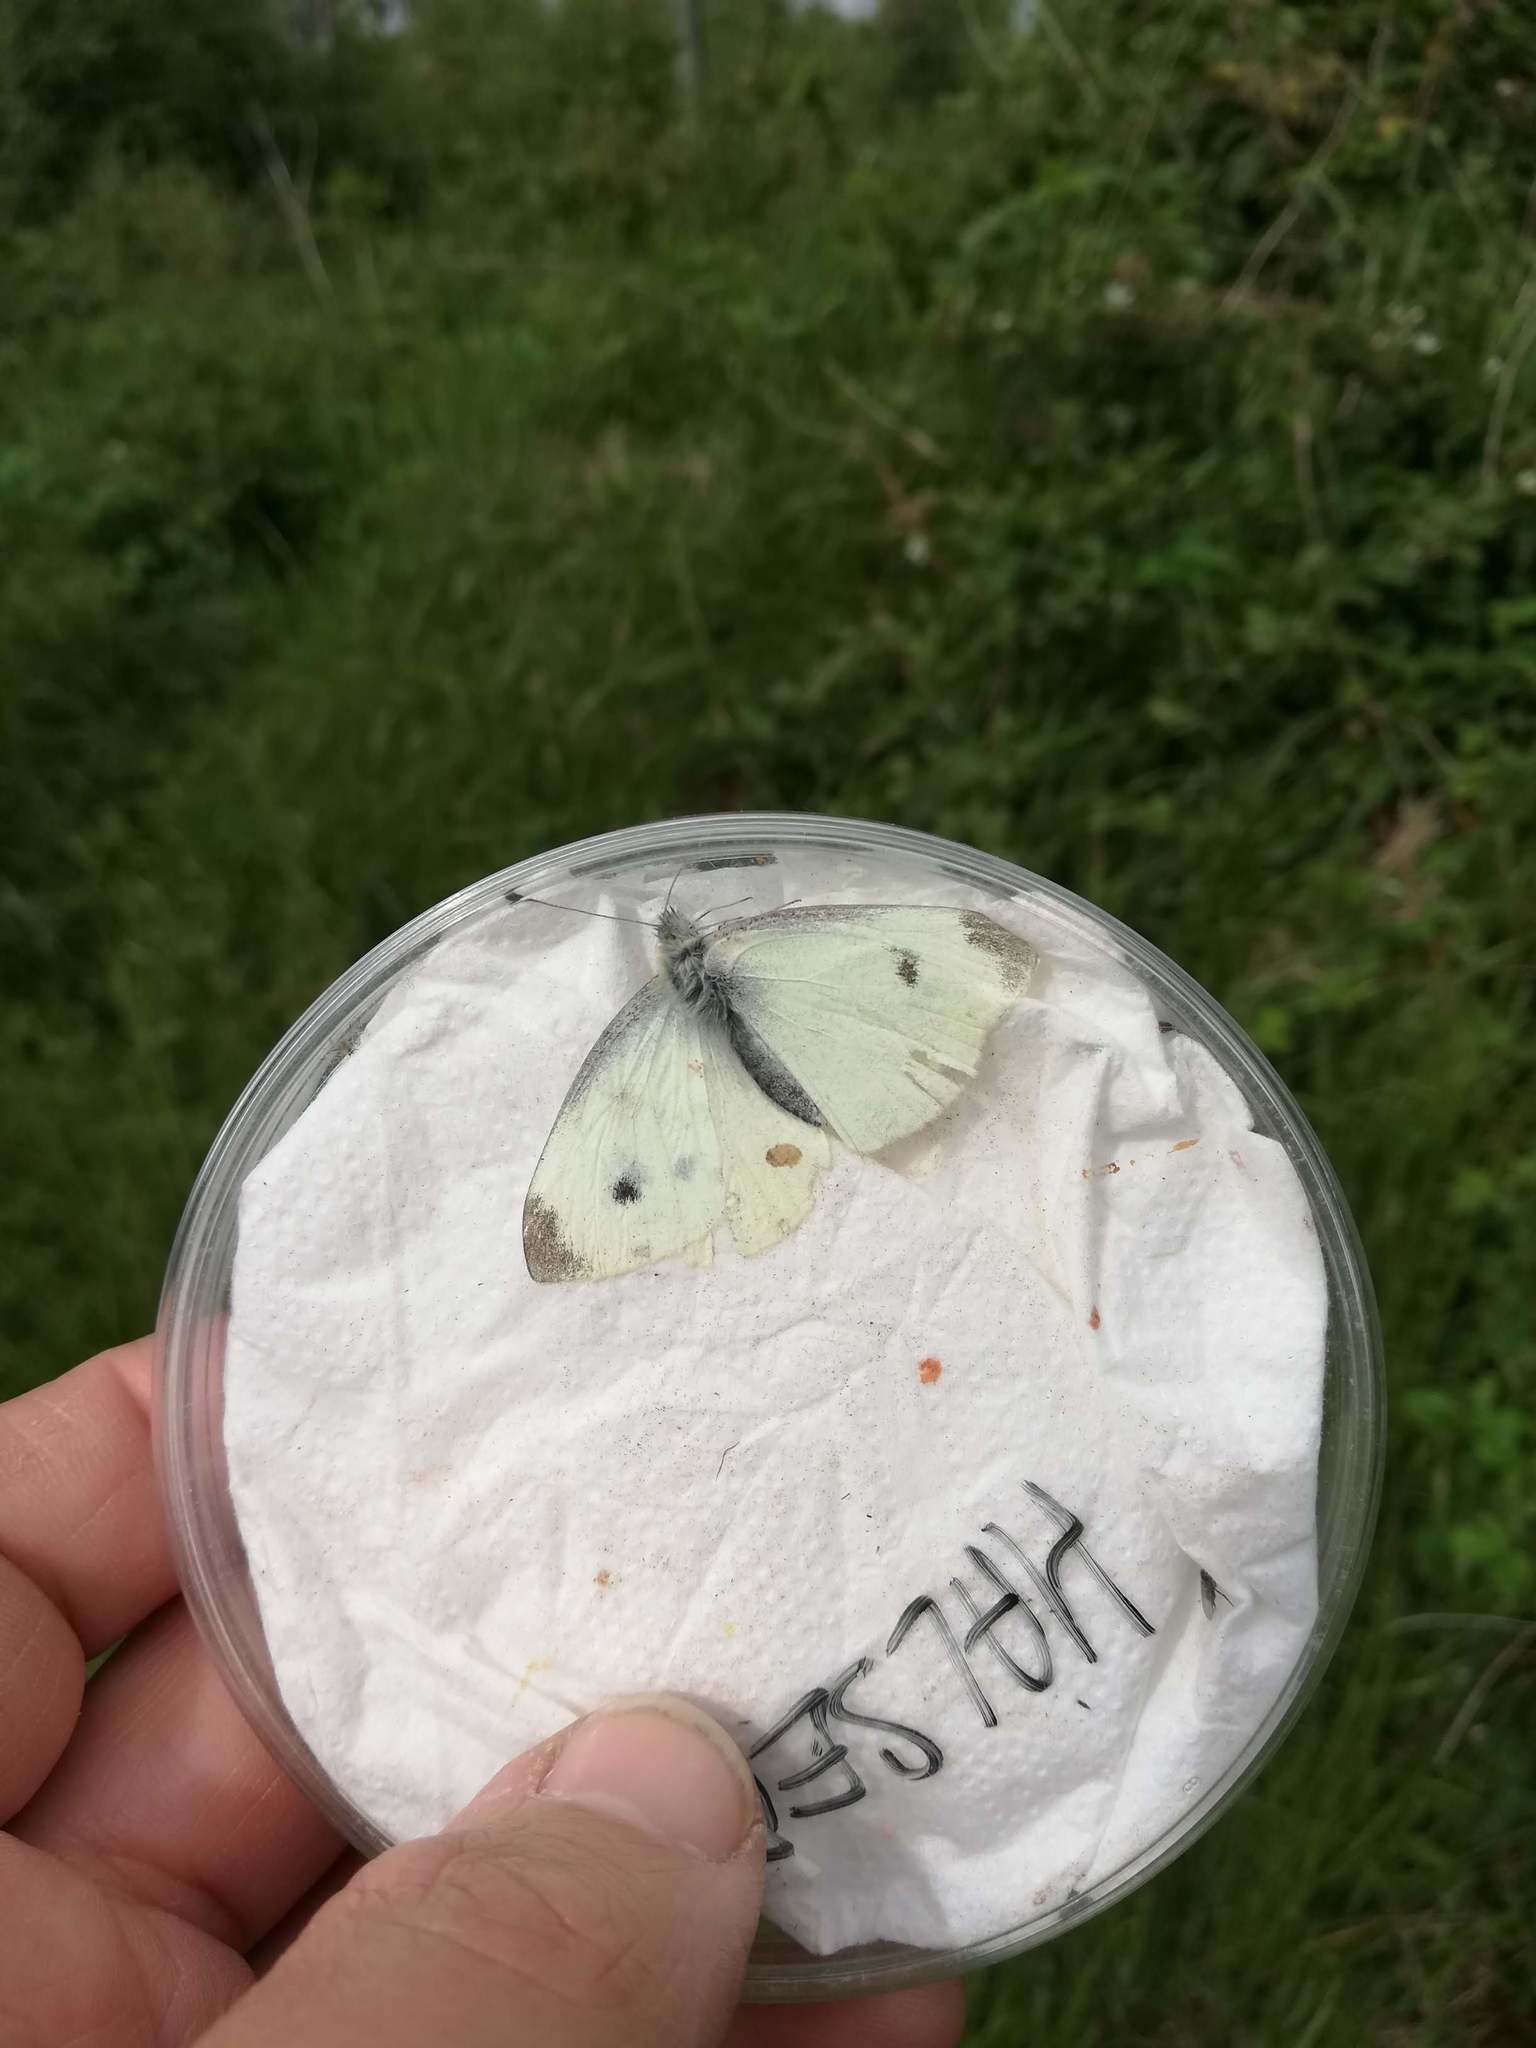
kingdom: Animalia
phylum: Arthropoda
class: Insecta
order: Lepidoptera
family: Pieridae
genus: Pieris
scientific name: Pieris rapae
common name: Small white
